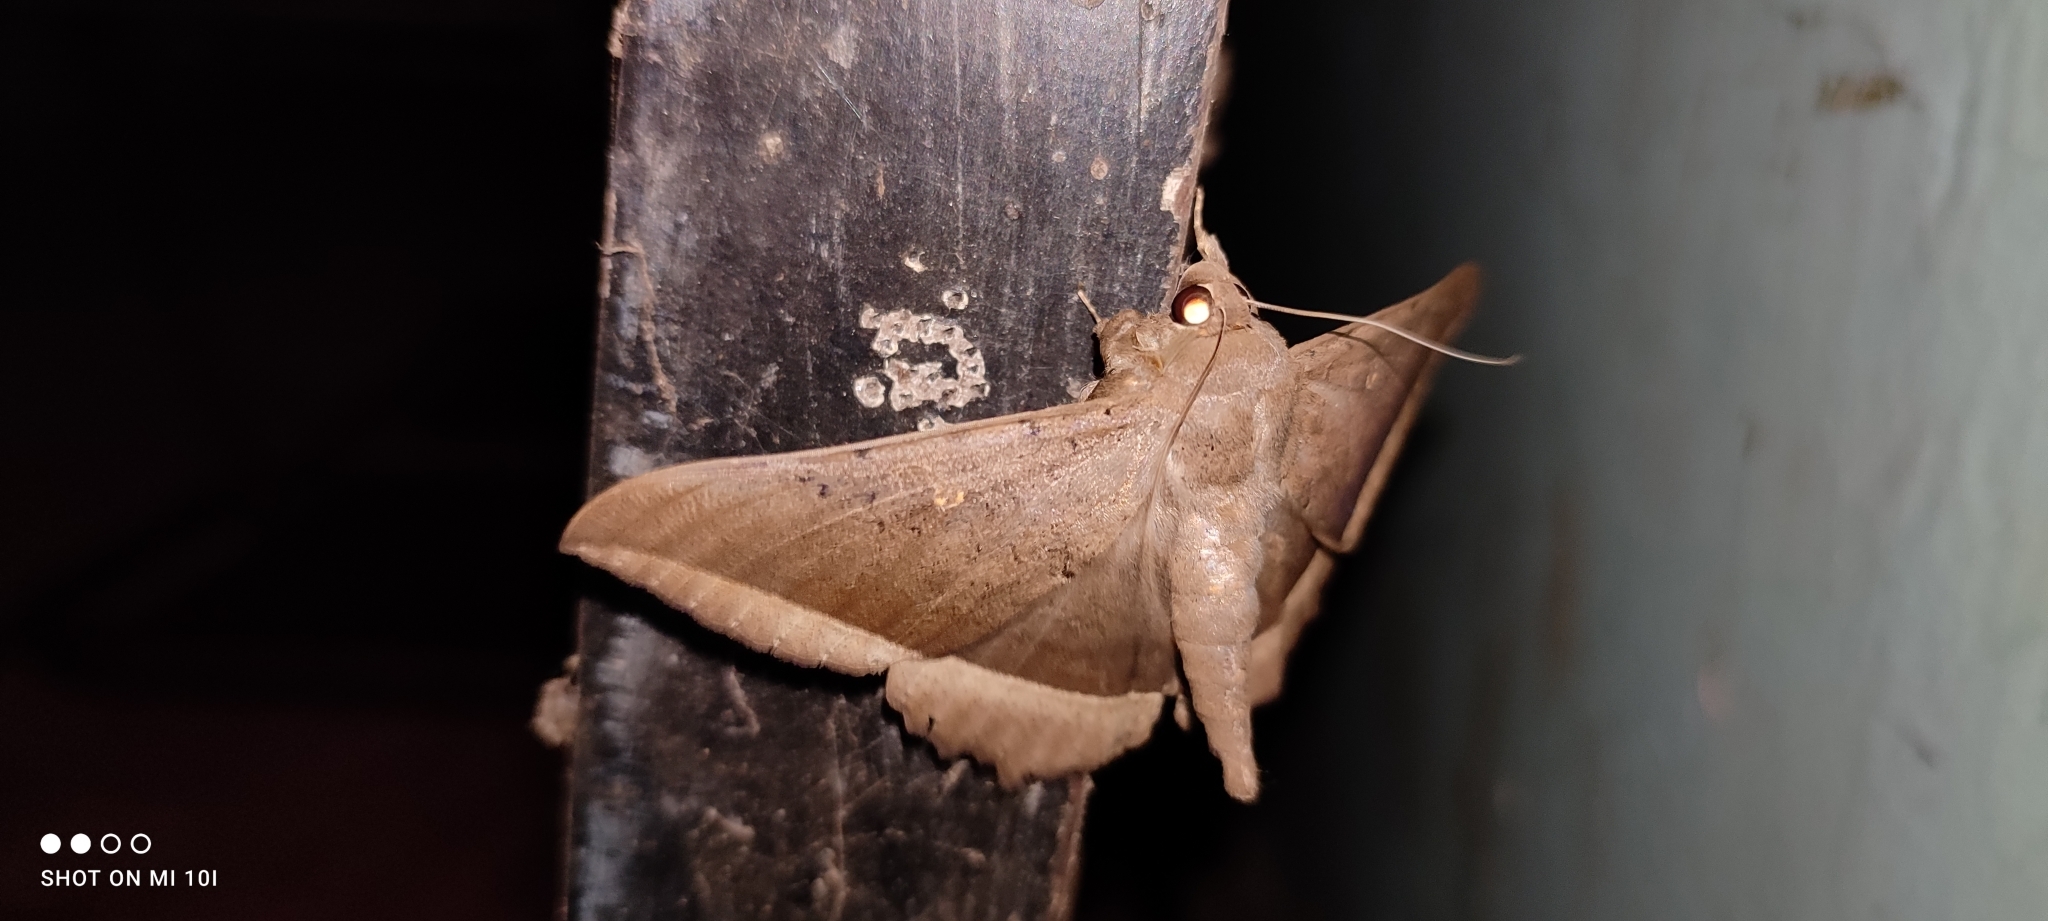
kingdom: Animalia
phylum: Arthropoda
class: Insecta
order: Lepidoptera
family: Erebidae
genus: Hulodes
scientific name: Hulodes caranea
